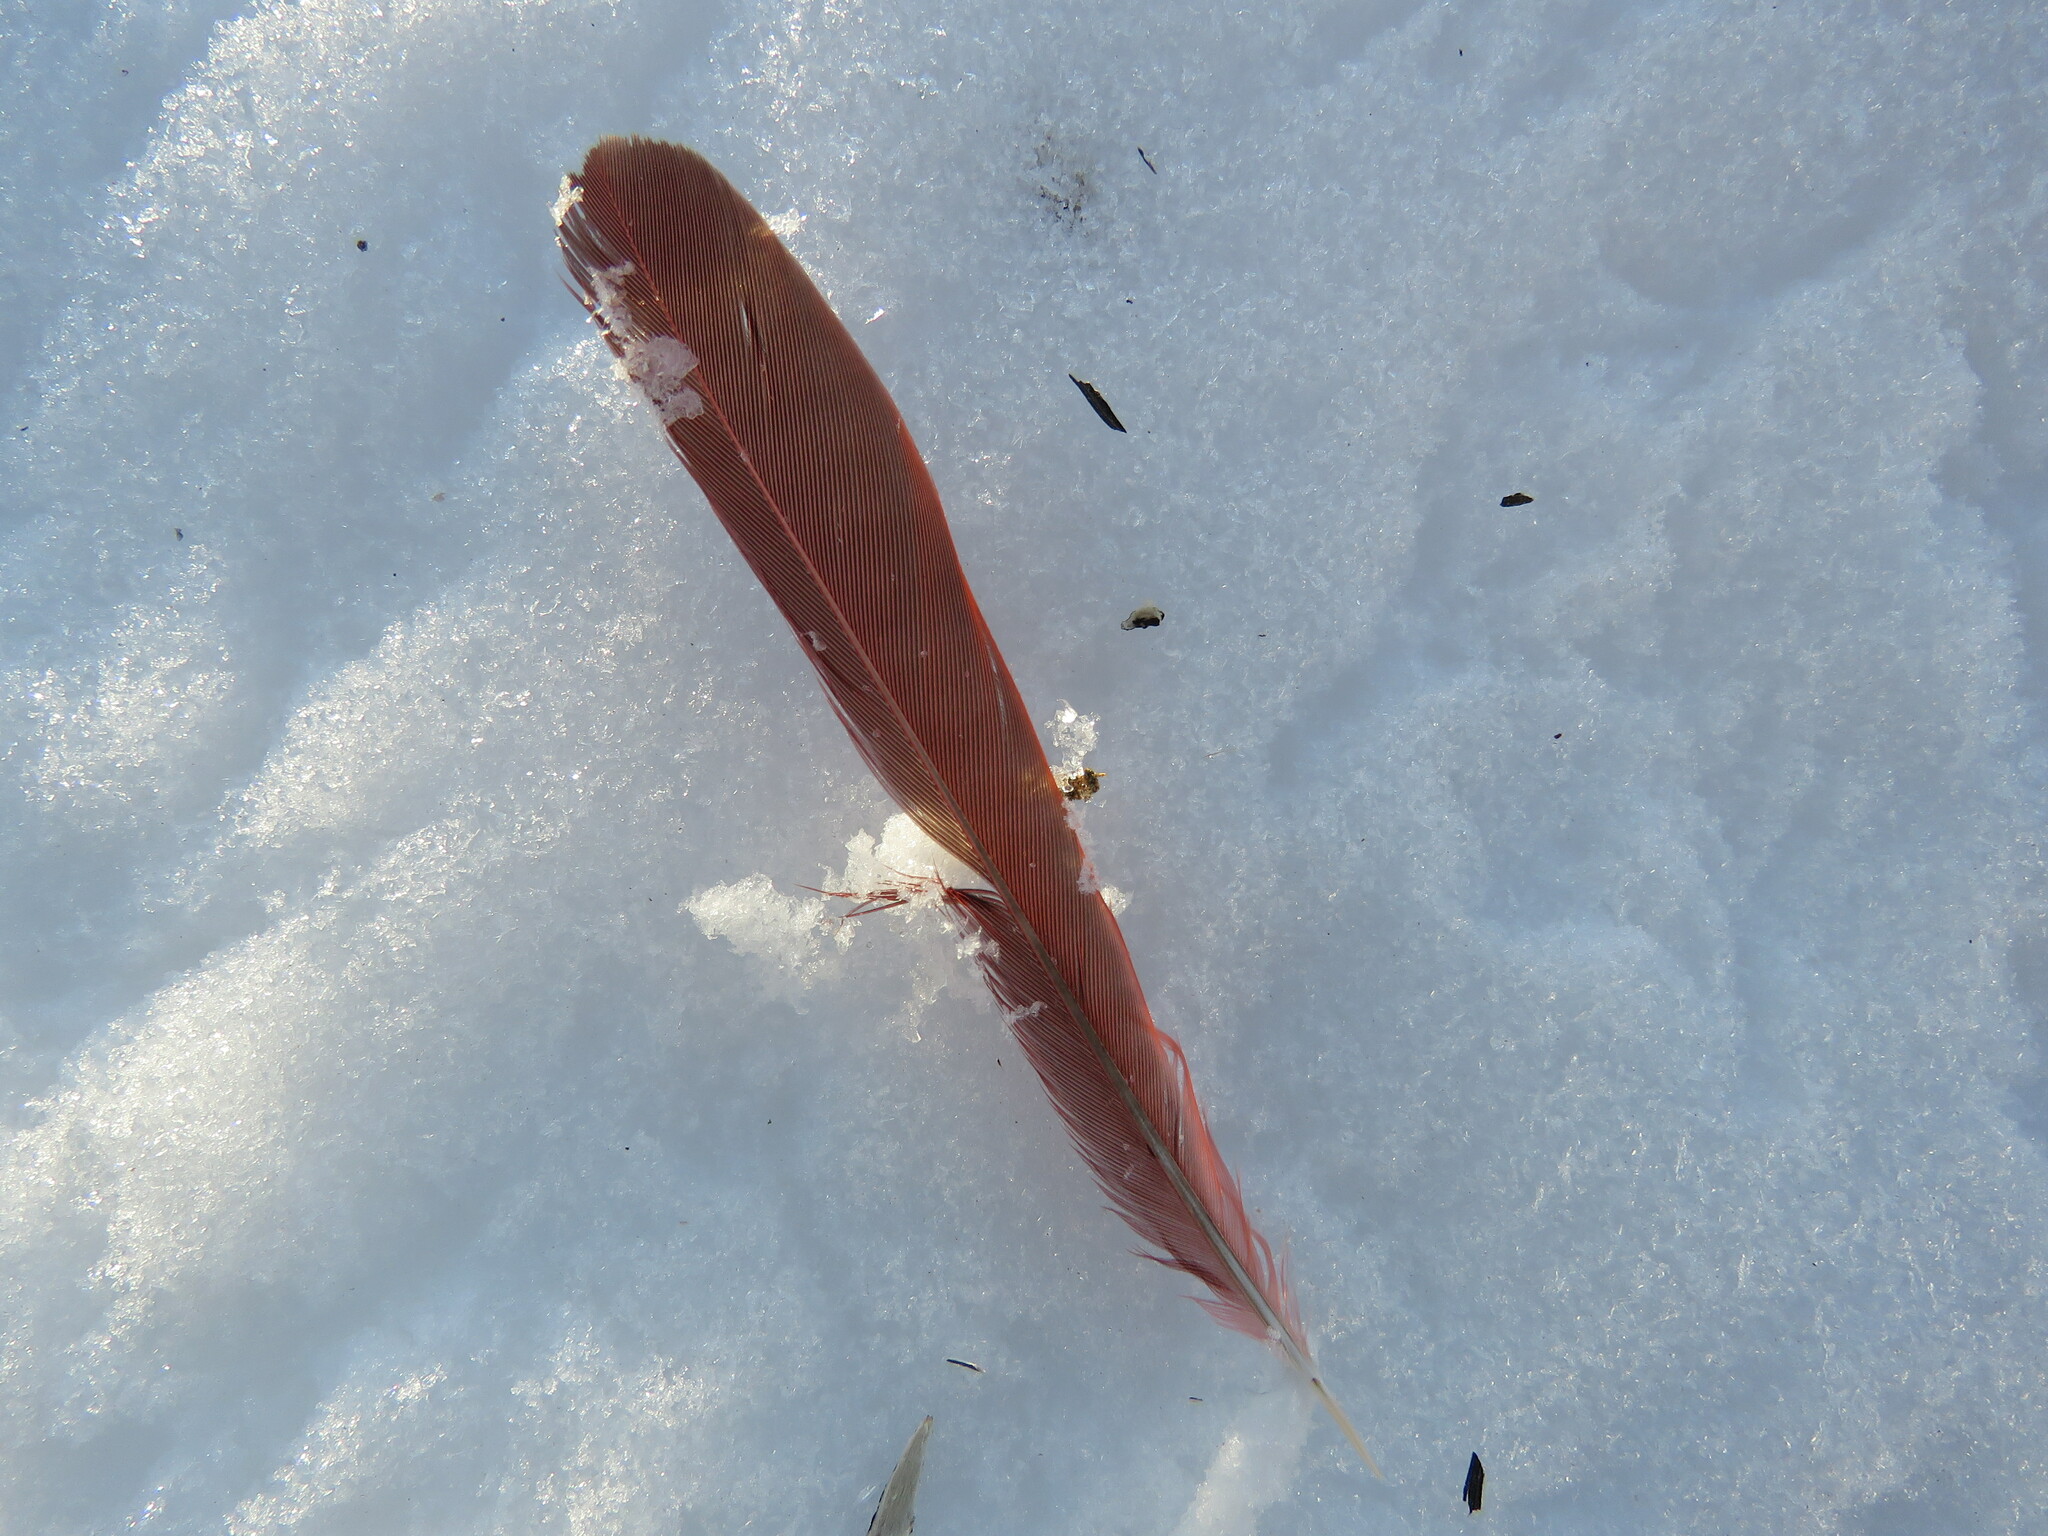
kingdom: Animalia
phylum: Chordata
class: Aves
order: Passeriformes
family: Cardinalidae
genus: Cardinalis
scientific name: Cardinalis cardinalis
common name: Northern cardinal
